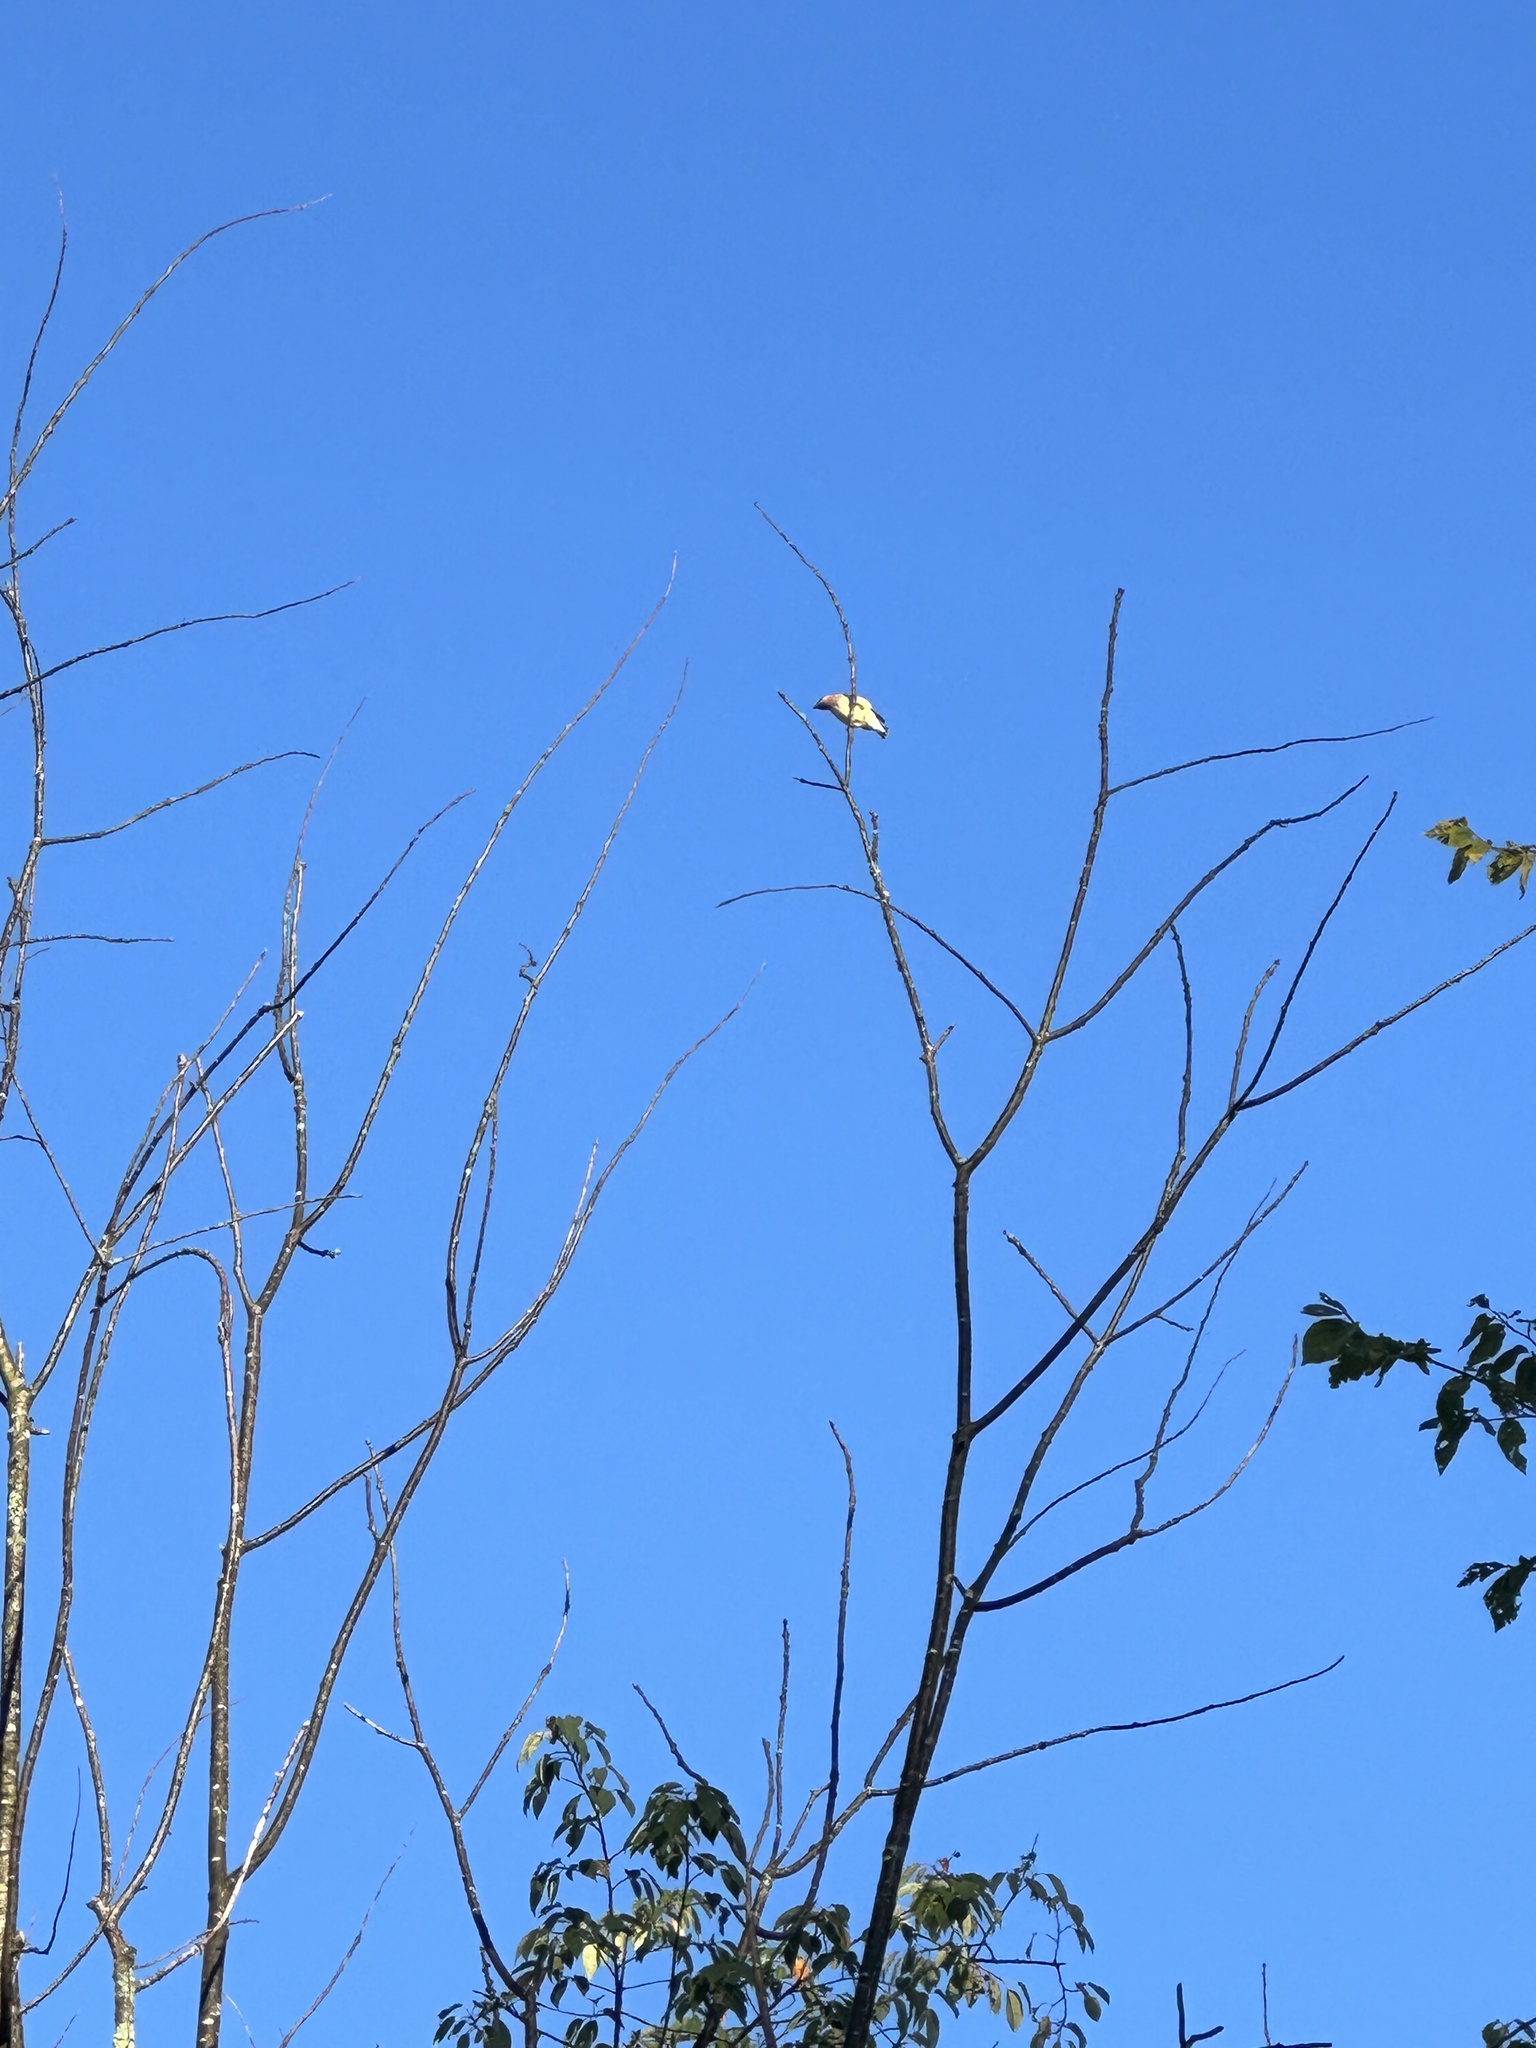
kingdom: Animalia
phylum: Chordata
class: Aves
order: Passeriformes
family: Bombycillidae
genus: Bombycilla
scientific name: Bombycilla cedrorum
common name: Cedar waxwing
